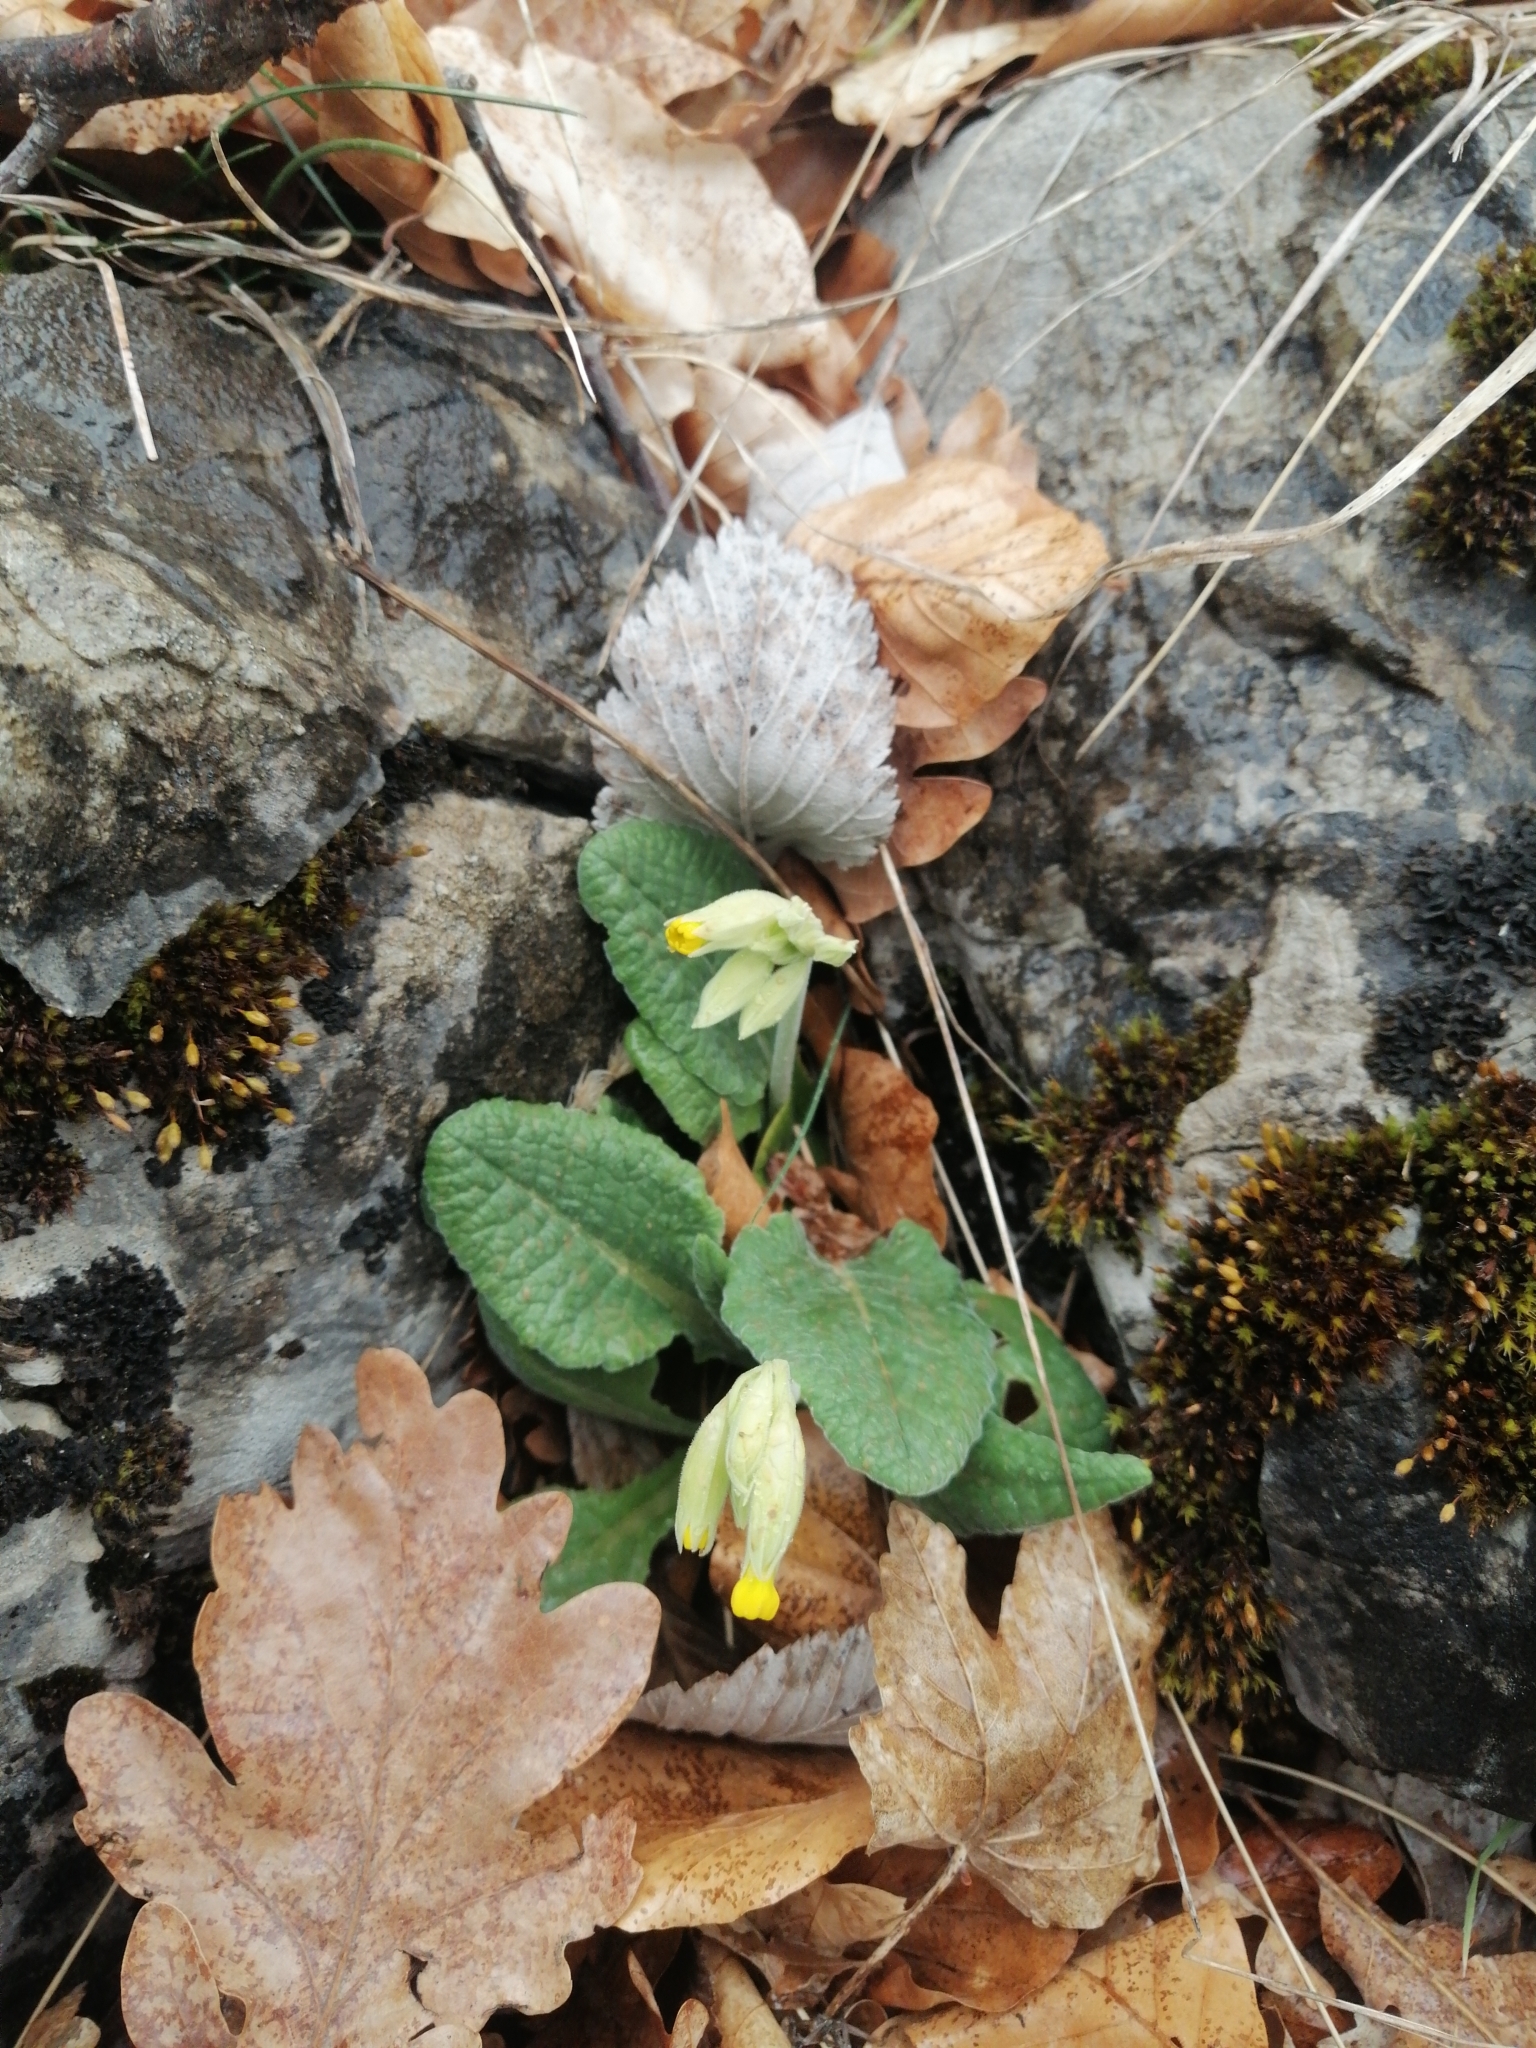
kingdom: Plantae
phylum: Tracheophyta
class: Magnoliopsida
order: Ericales
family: Primulaceae
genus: Primula
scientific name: Primula veris
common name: Cowslip
